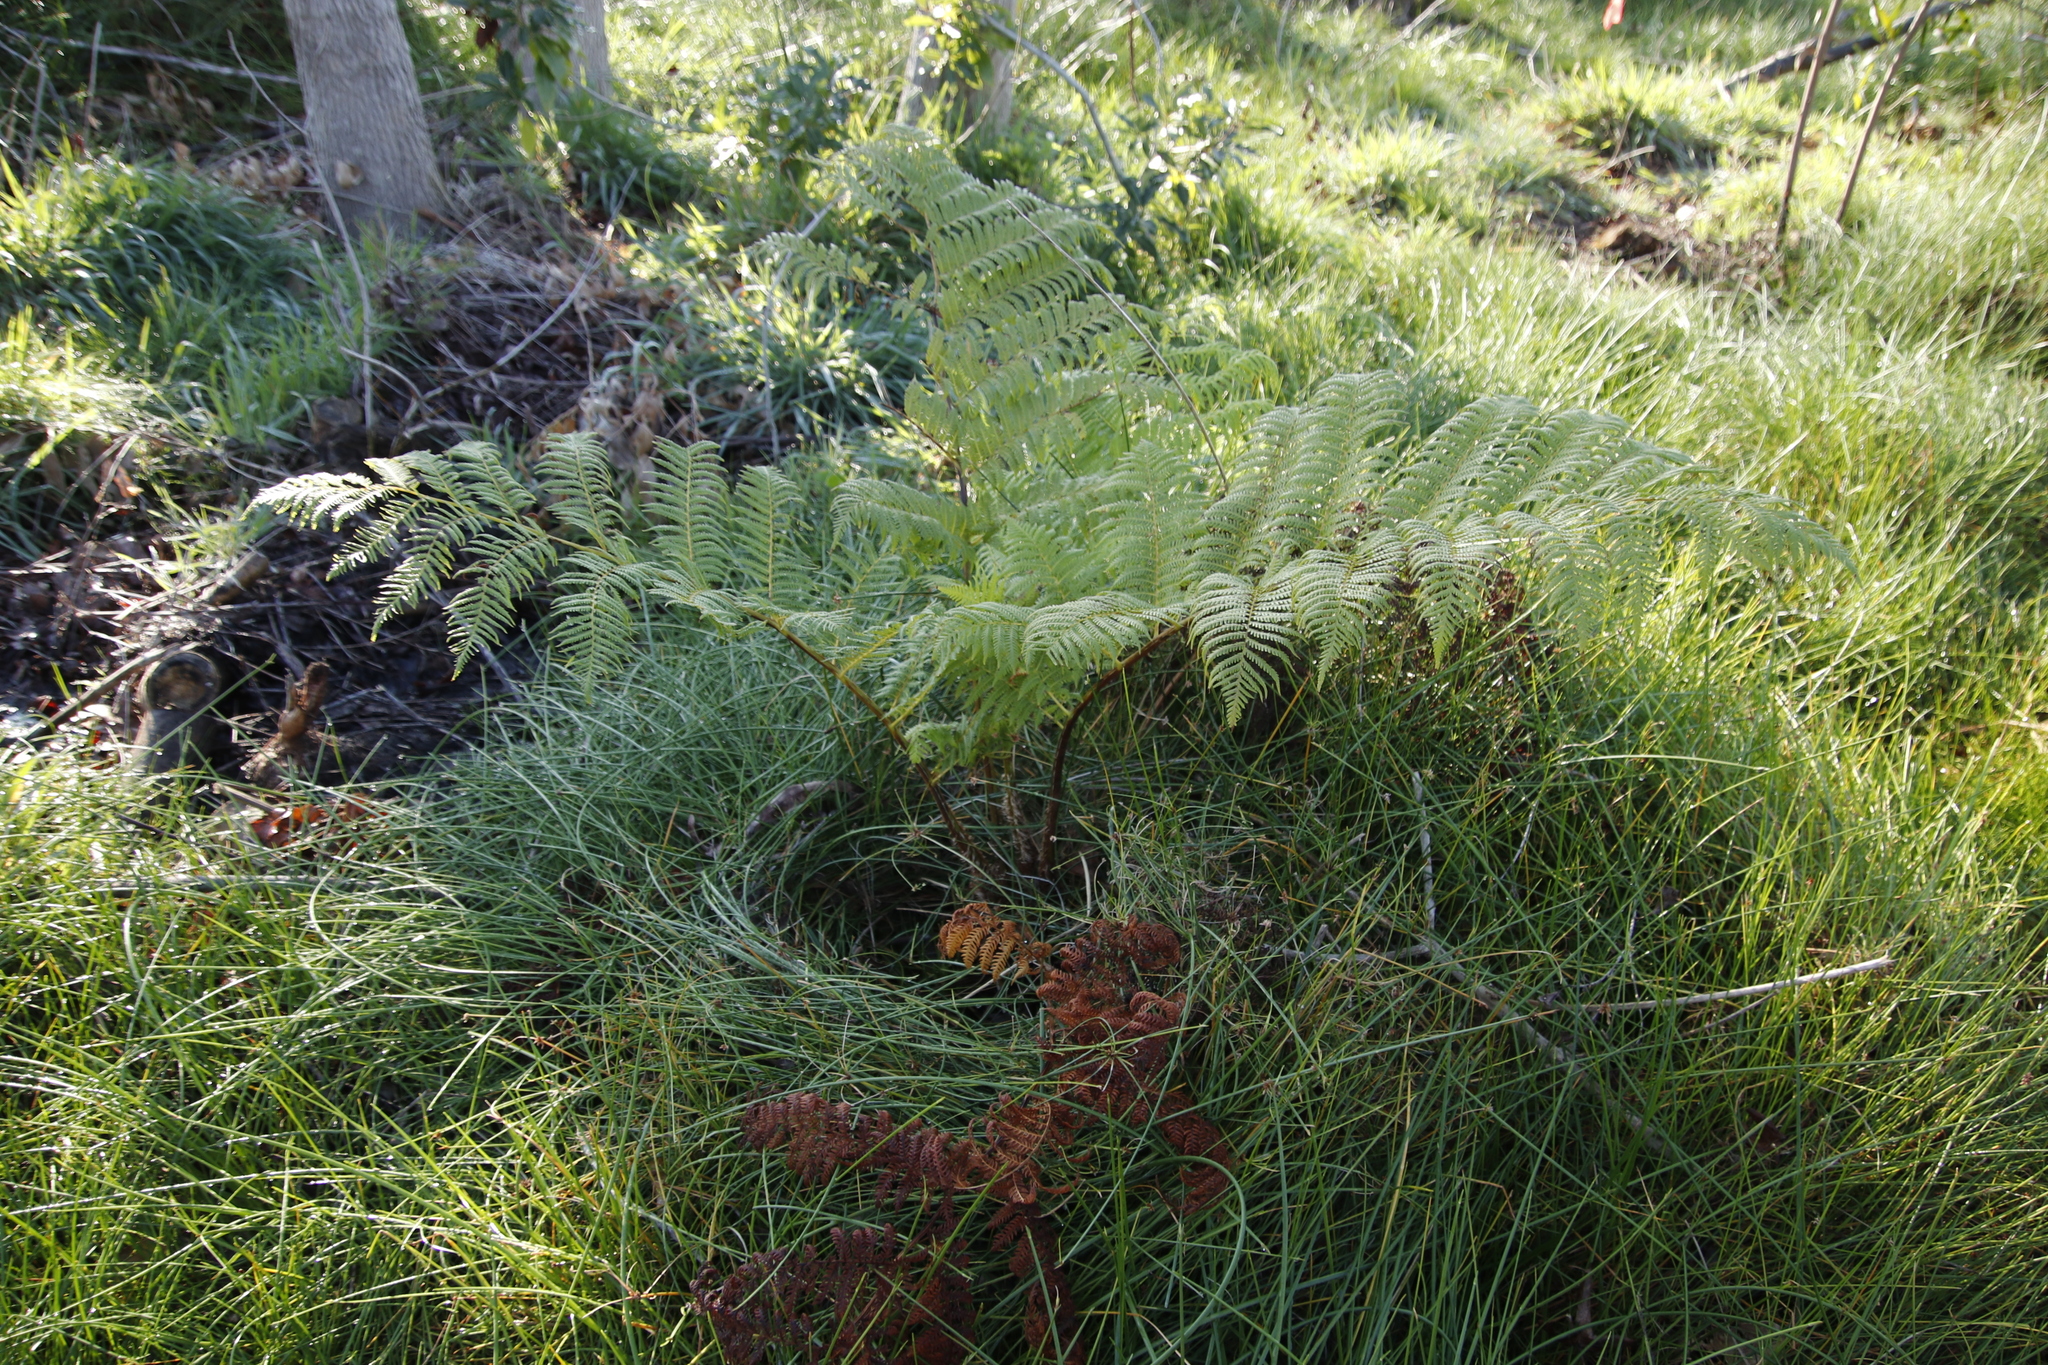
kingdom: Plantae
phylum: Tracheophyta
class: Polypodiopsida
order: Cyatheales
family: Cyatheaceae
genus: Sphaeropteris
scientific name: Sphaeropteris cooperi
